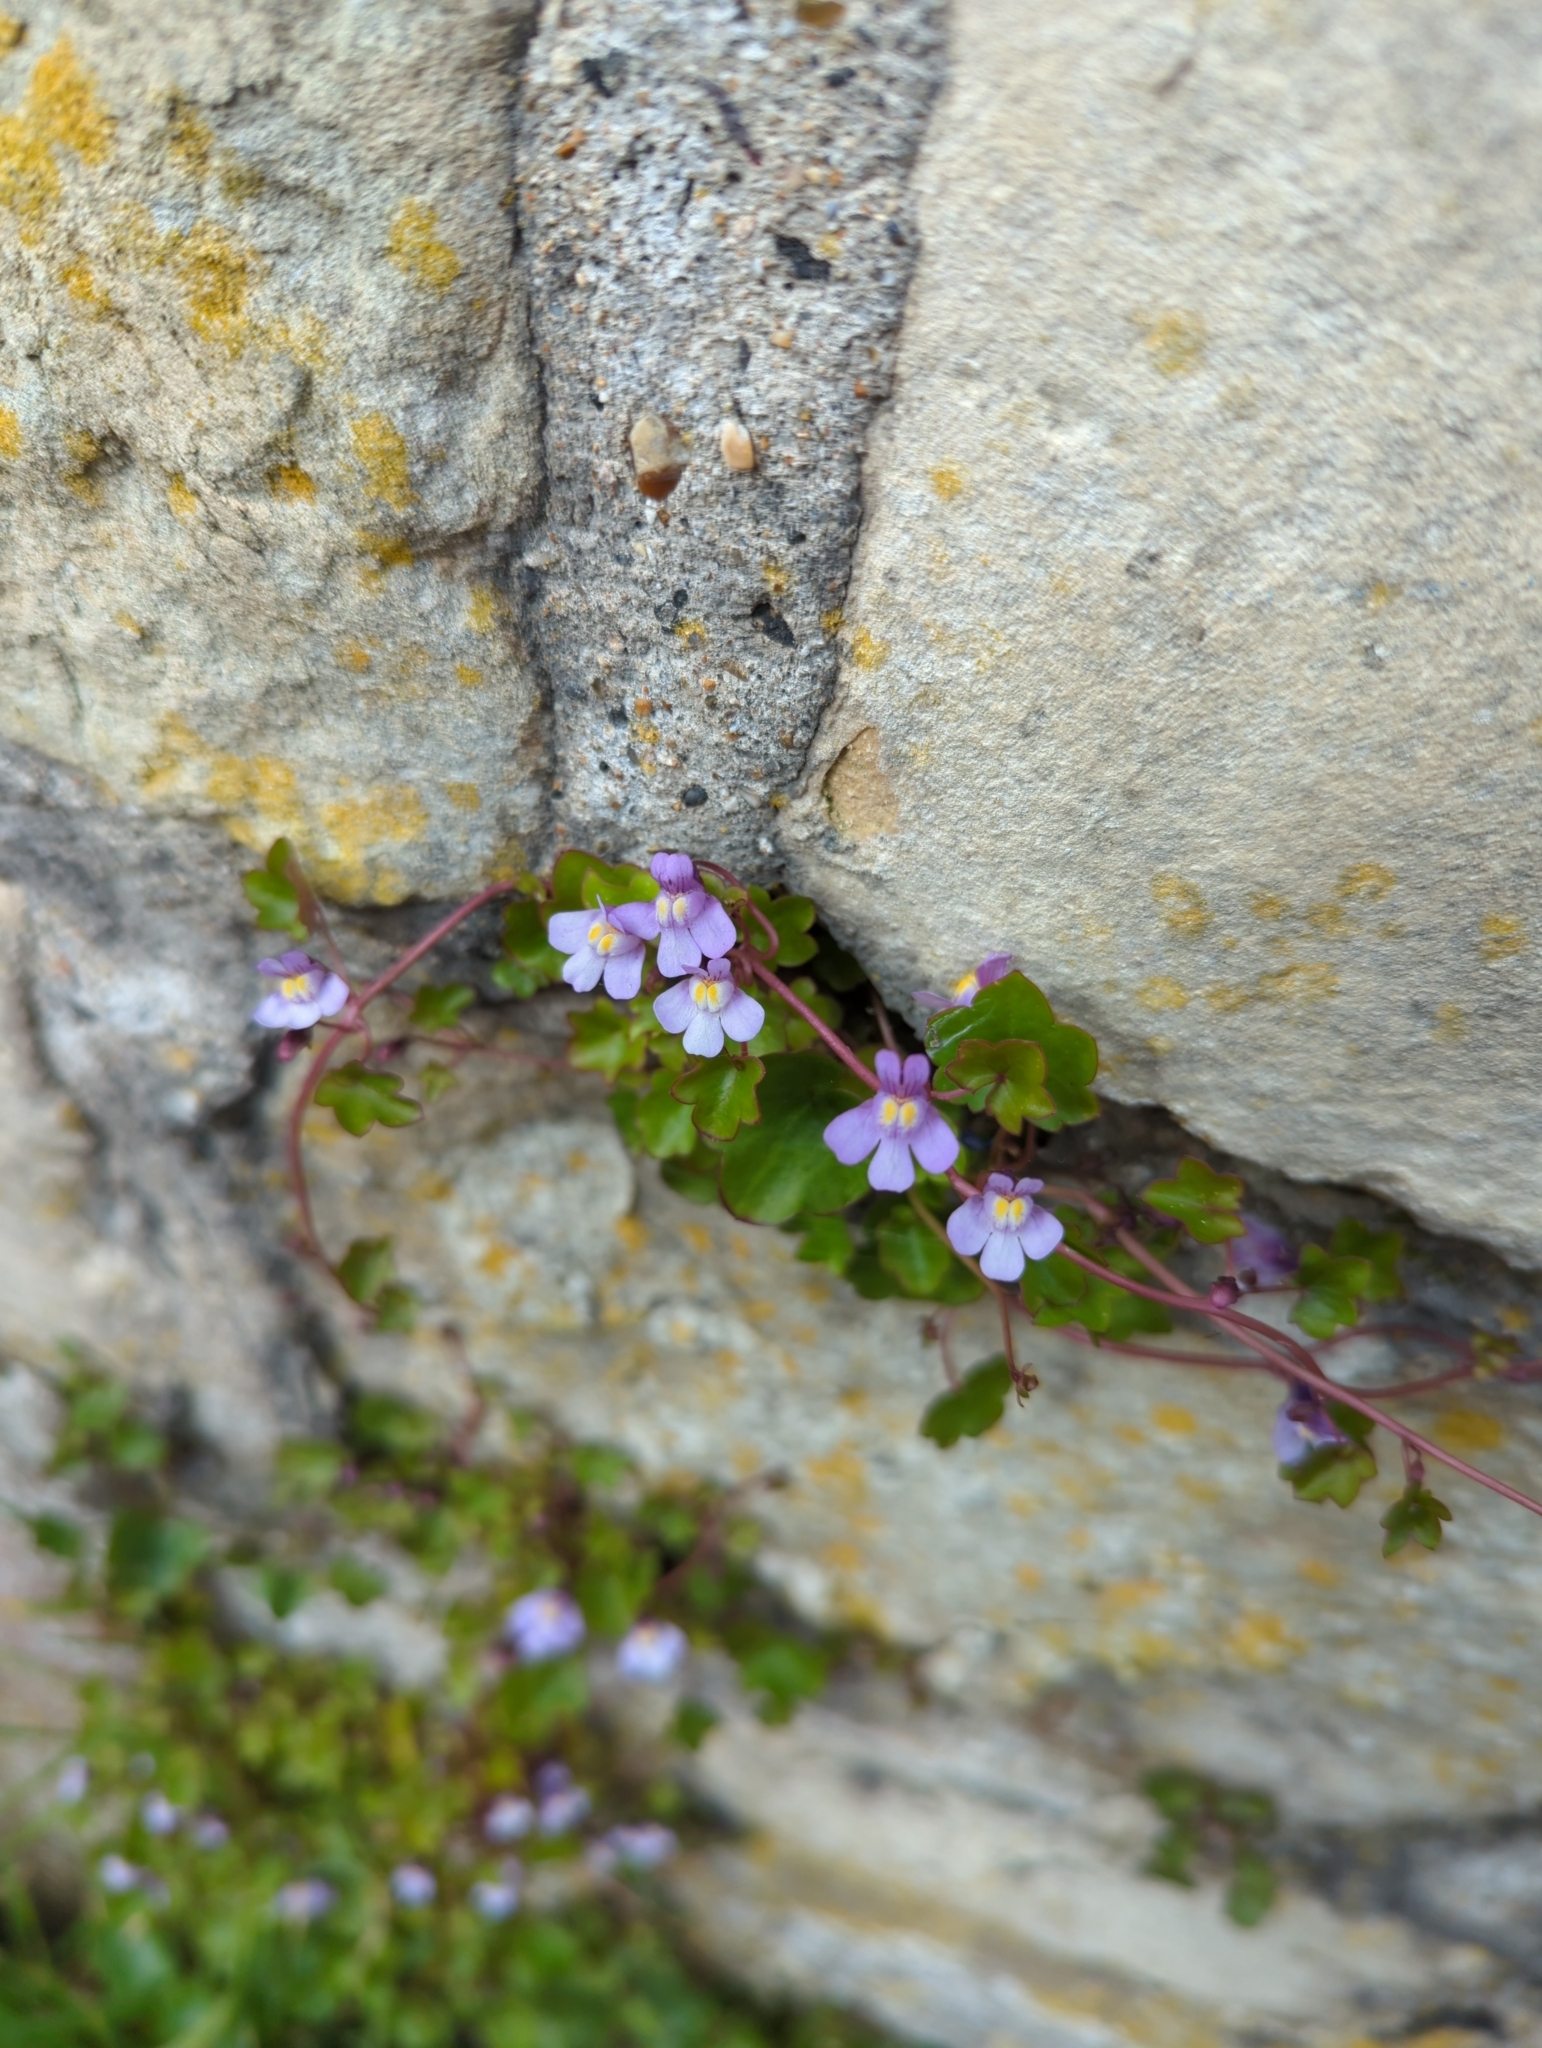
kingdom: Plantae
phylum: Tracheophyta
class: Magnoliopsida
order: Lamiales
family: Plantaginaceae
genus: Cymbalaria
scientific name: Cymbalaria muralis
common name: Ivy-leaved toadflax
